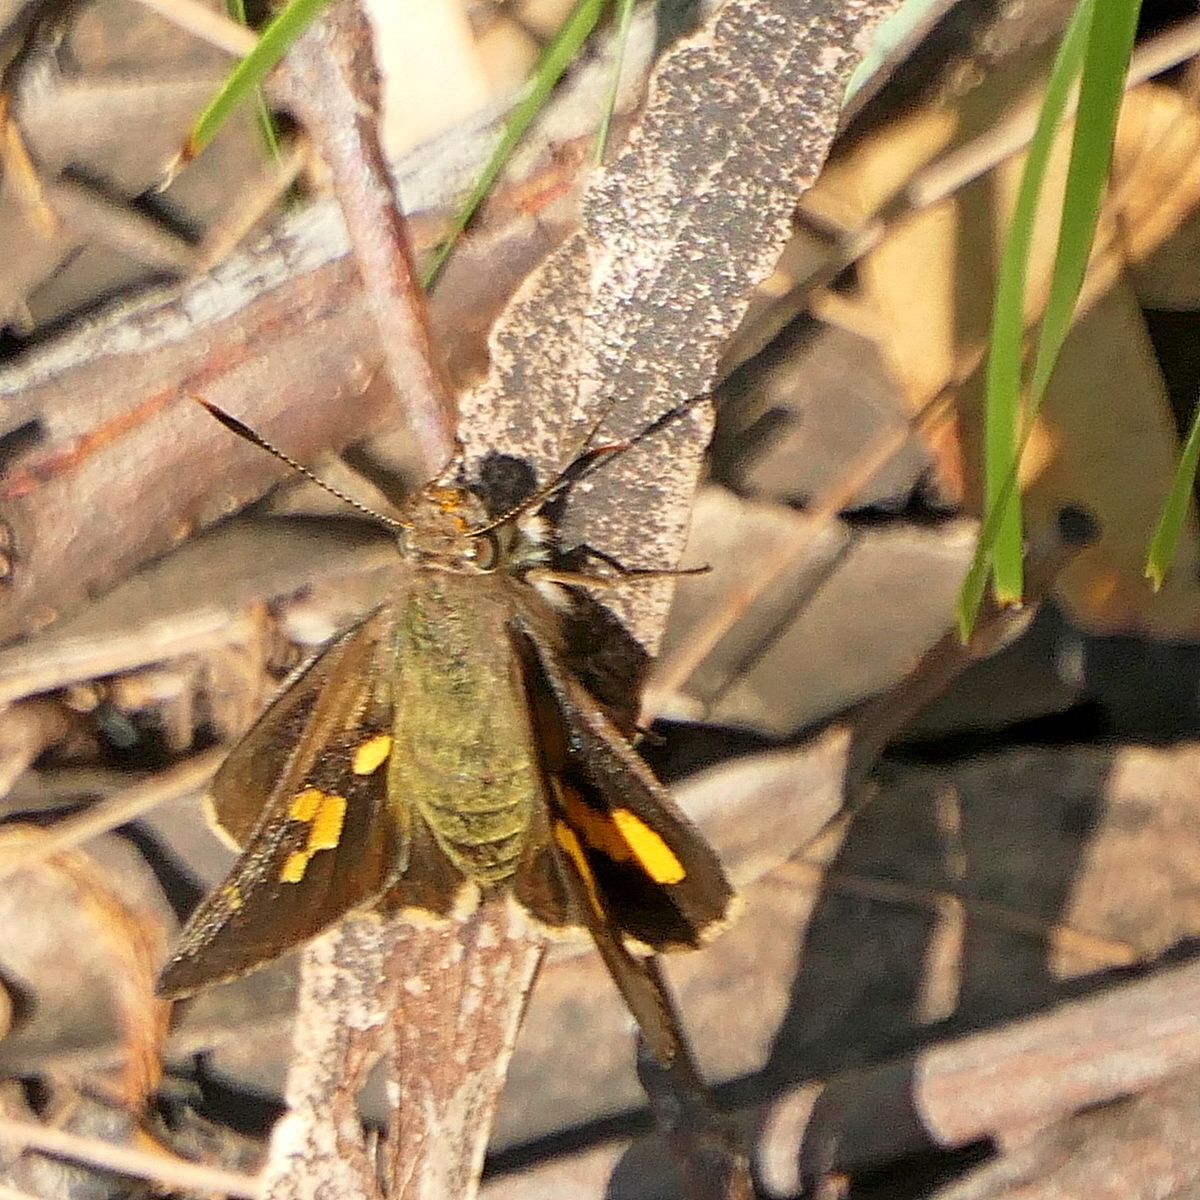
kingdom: Animalia
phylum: Arthropoda
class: Insecta
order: Lepidoptera
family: Hesperiidae
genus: Trapezites
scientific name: Trapezites praxedes
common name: Southern silver ochre
